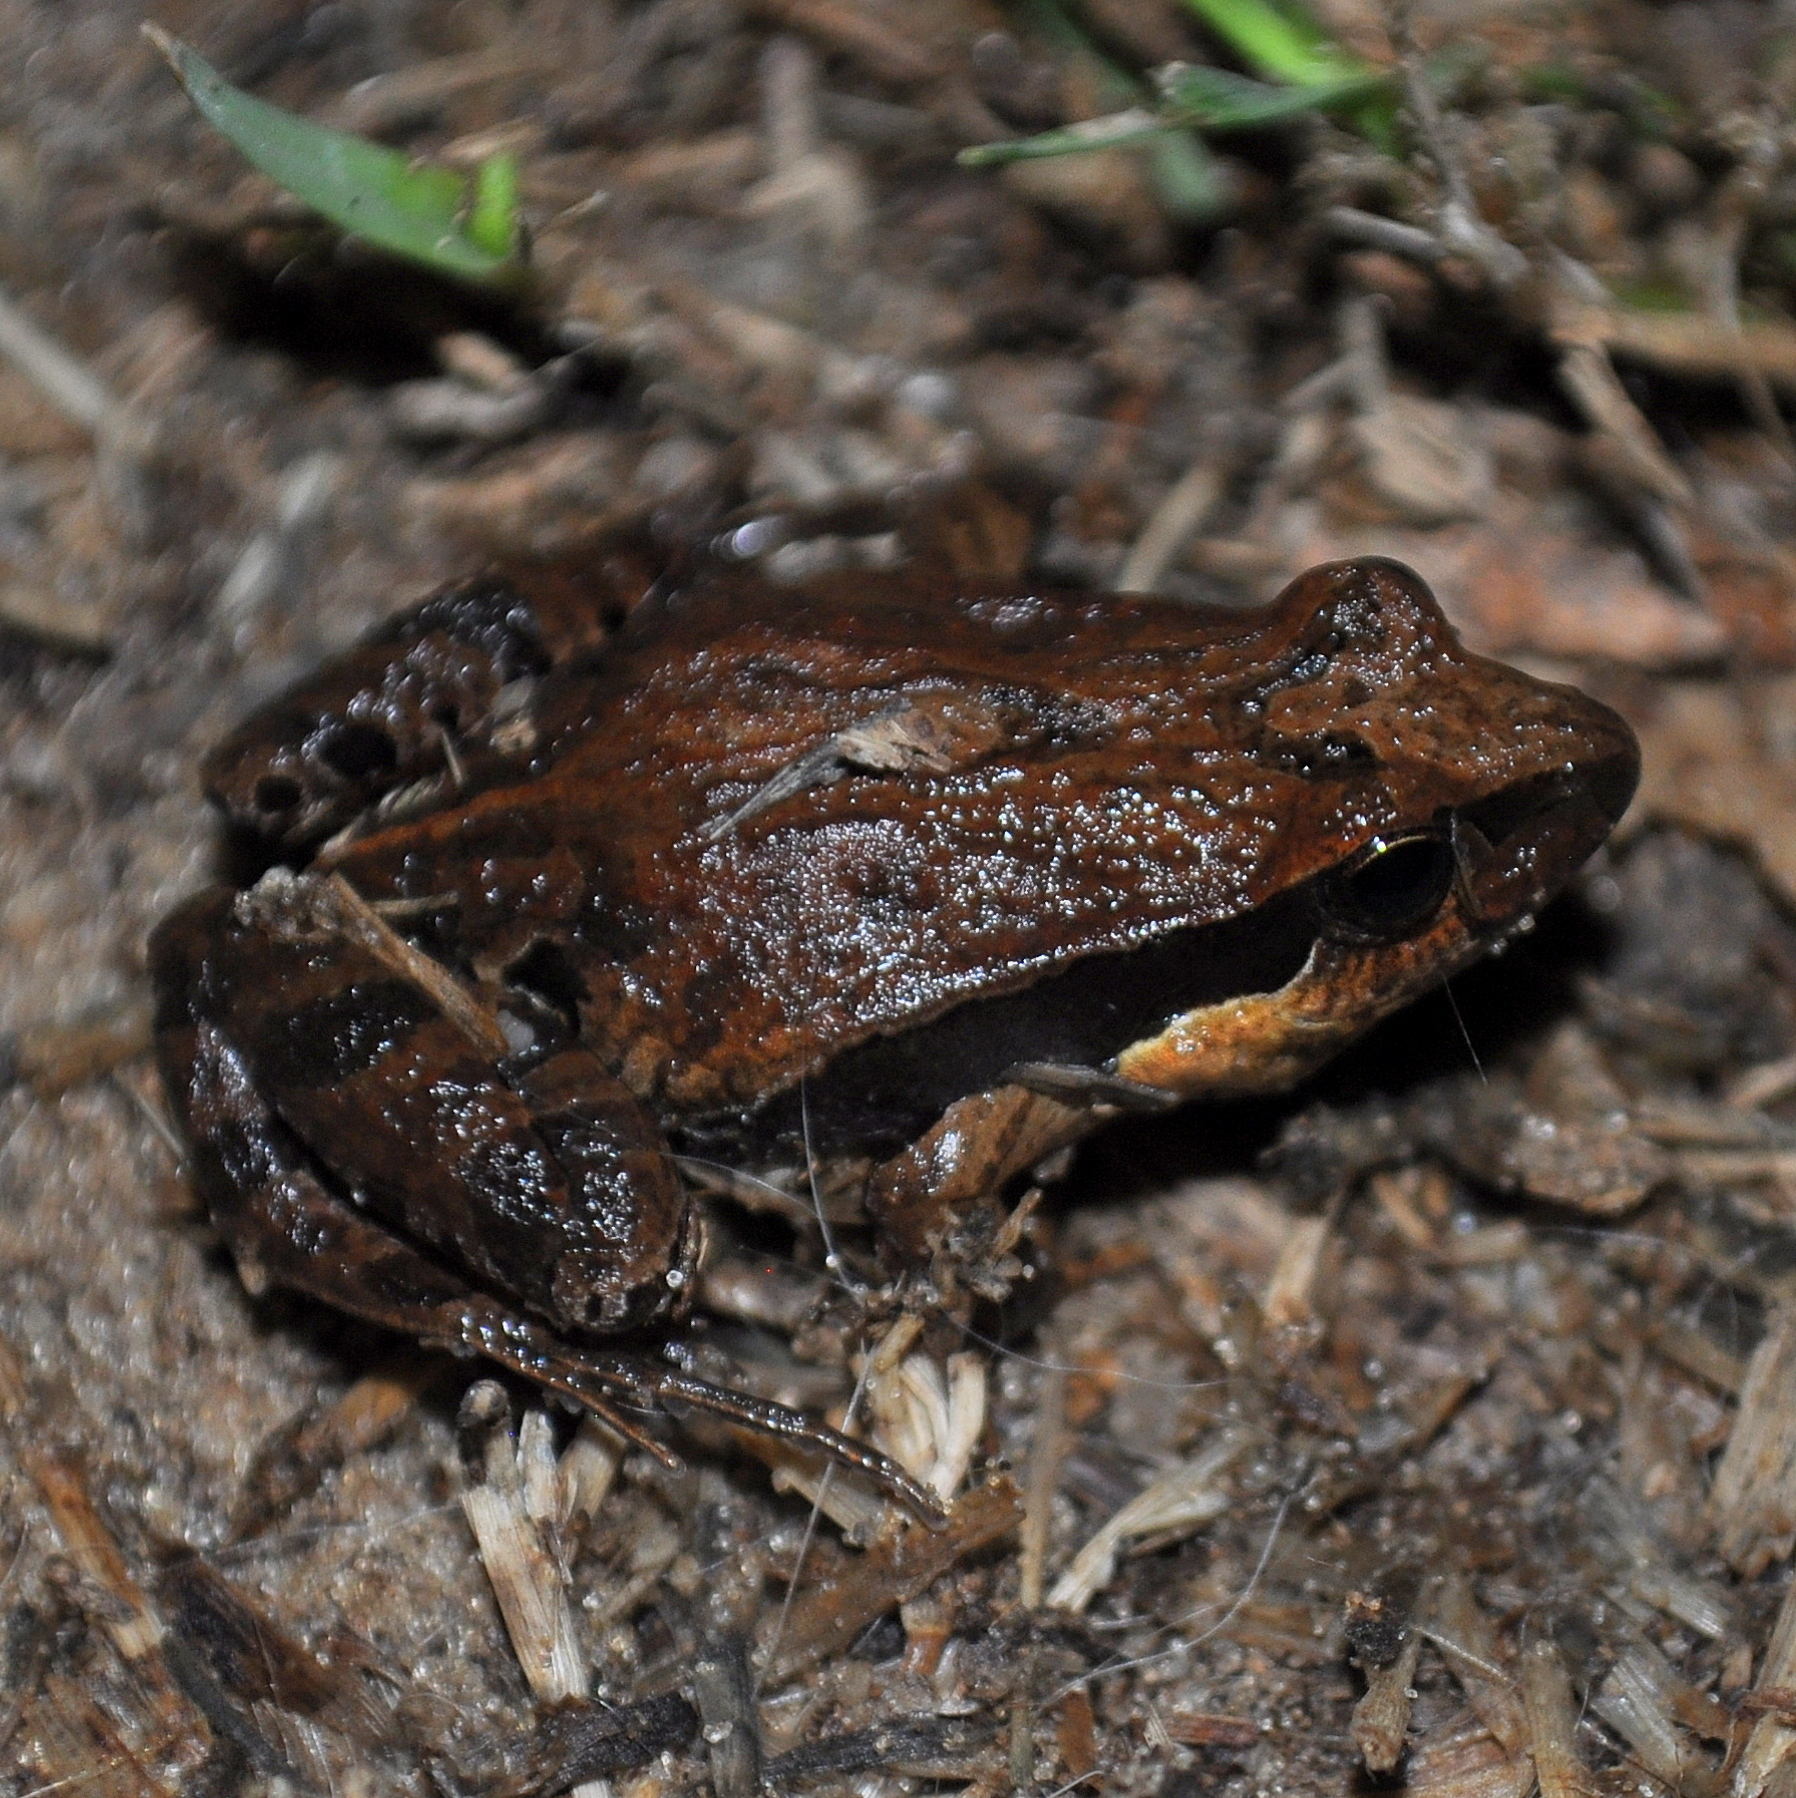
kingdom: Animalia
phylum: Chordata
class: Amphibia
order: Anura
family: Leptodactylidae
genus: Physalaemus
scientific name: Physalaemus gracilis
